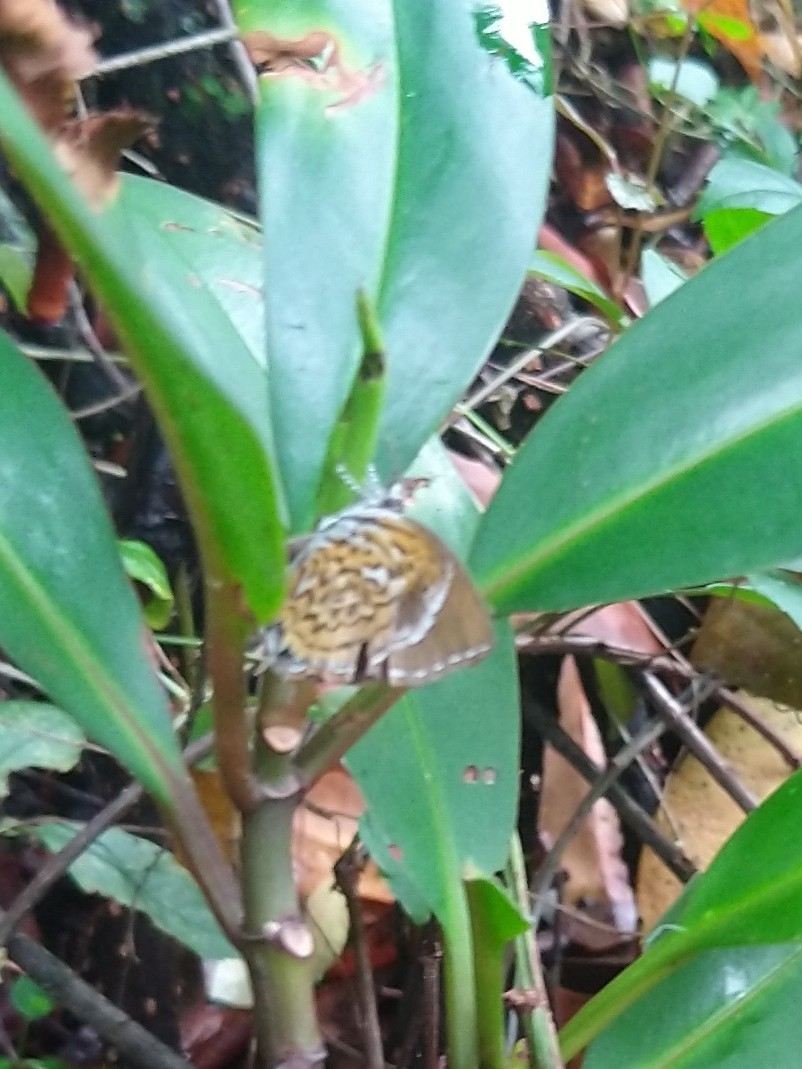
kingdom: Animalia
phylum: Arthropoda
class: Insecta
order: Lepidoptera
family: Lycaenidae
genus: Rathinda
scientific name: Rathinda amor
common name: Monkey puzzle
